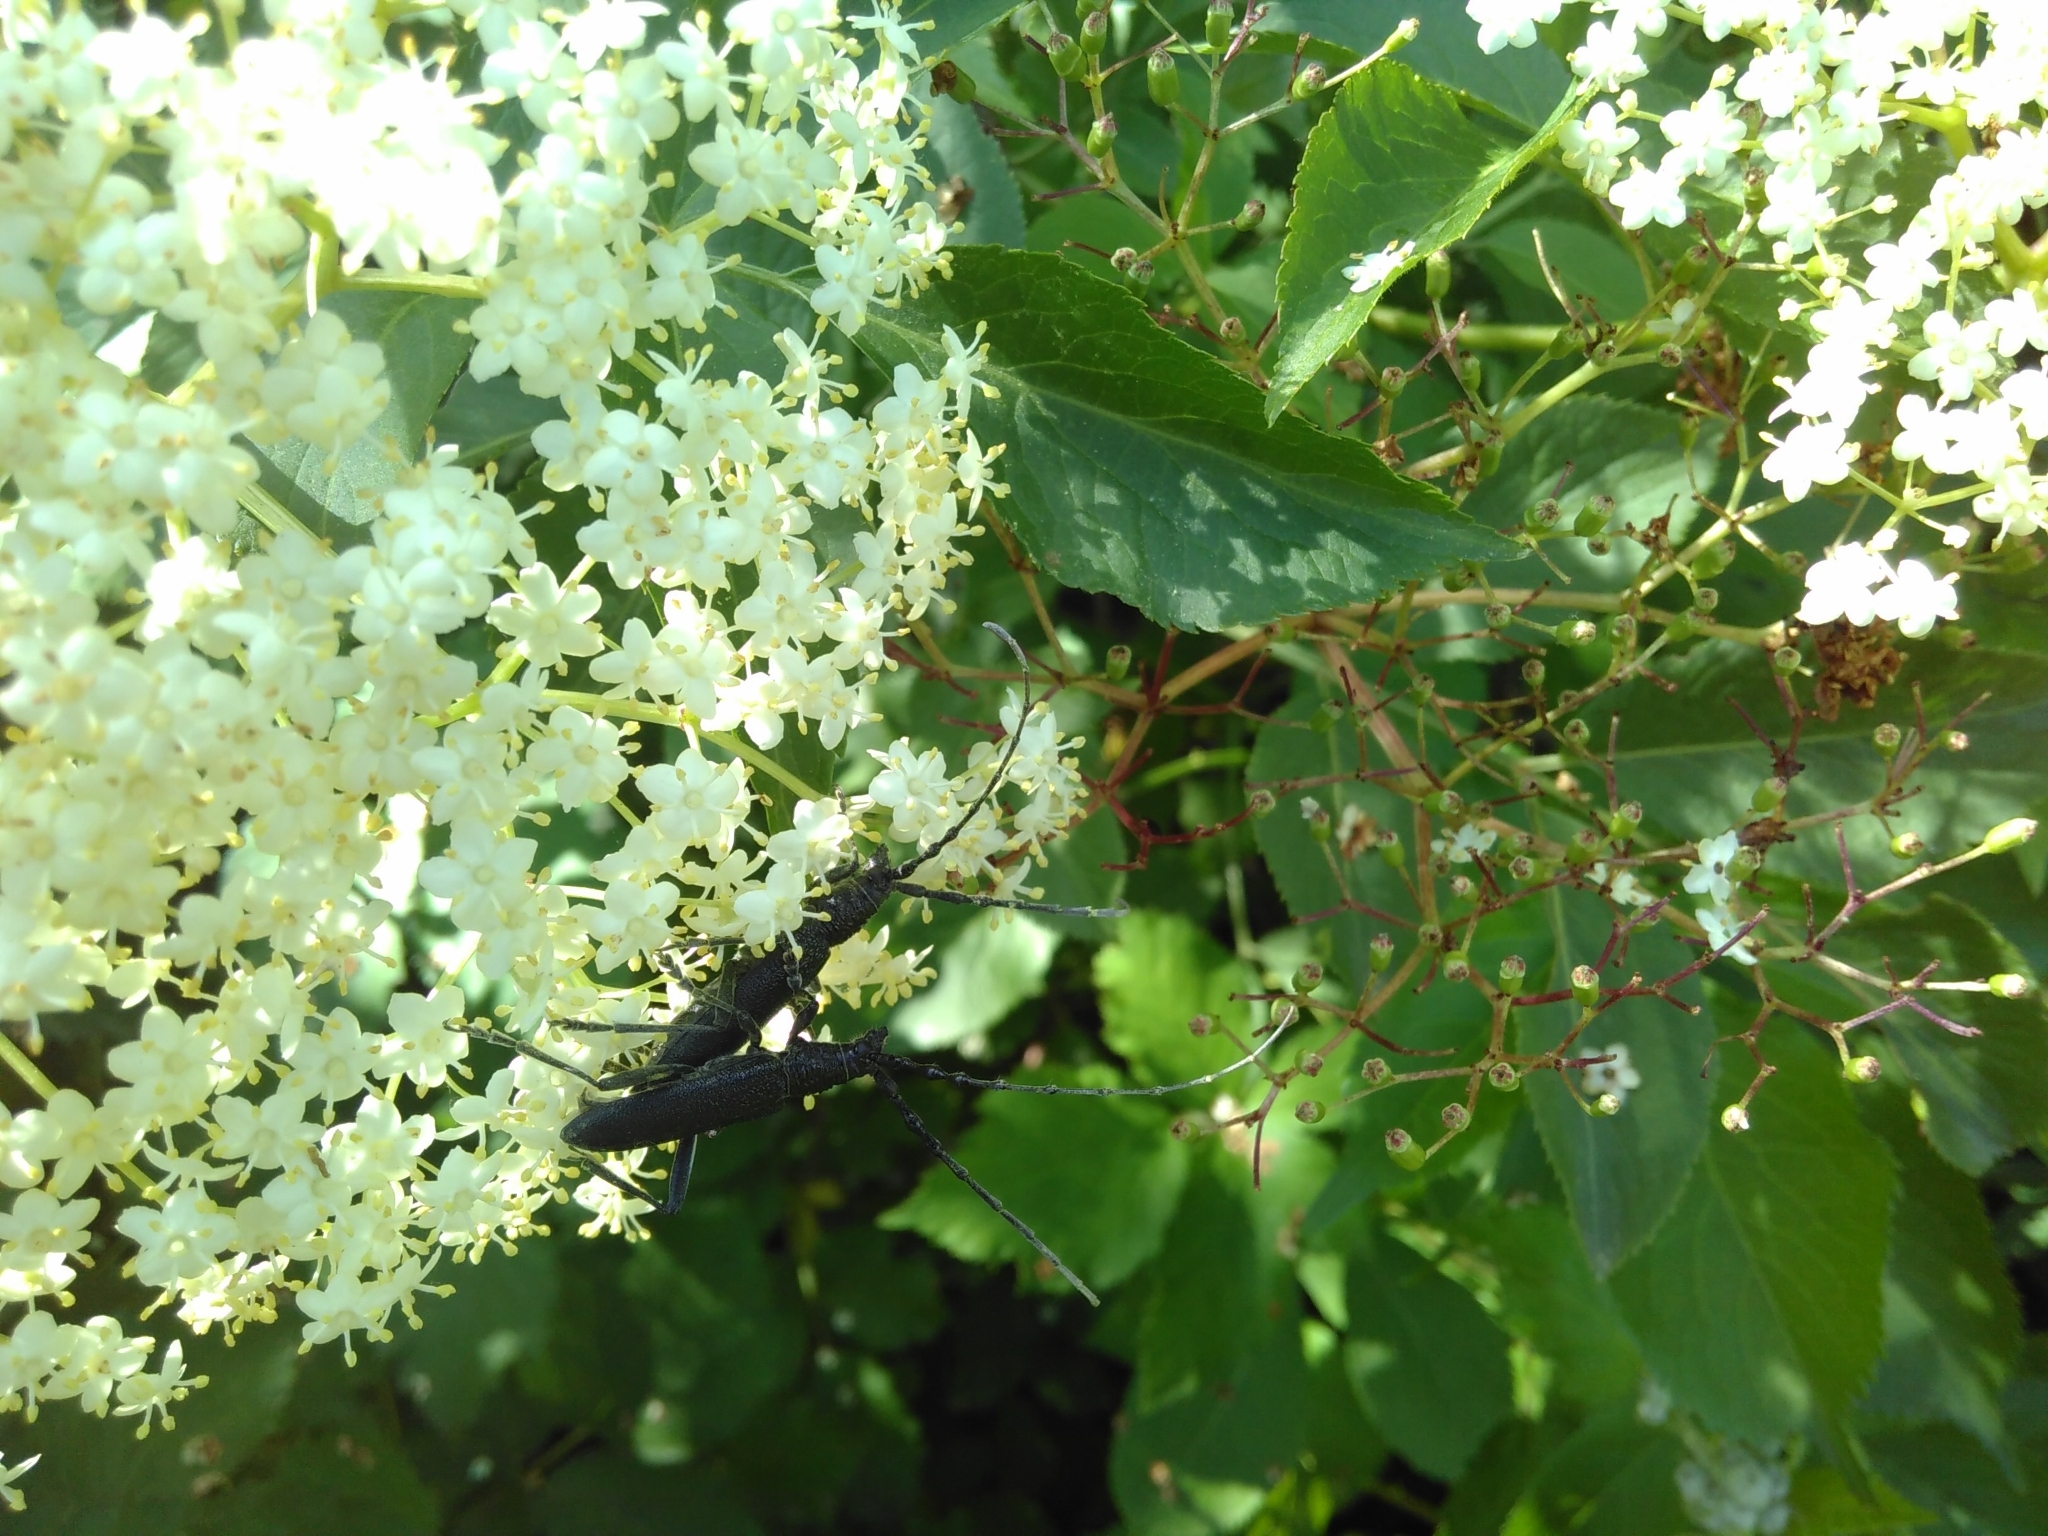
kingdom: Animalia
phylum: Arthropoda
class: Insecta
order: Coleoptera
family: Cerambycidae
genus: Cerambyx
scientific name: Cerambyx scopolii
